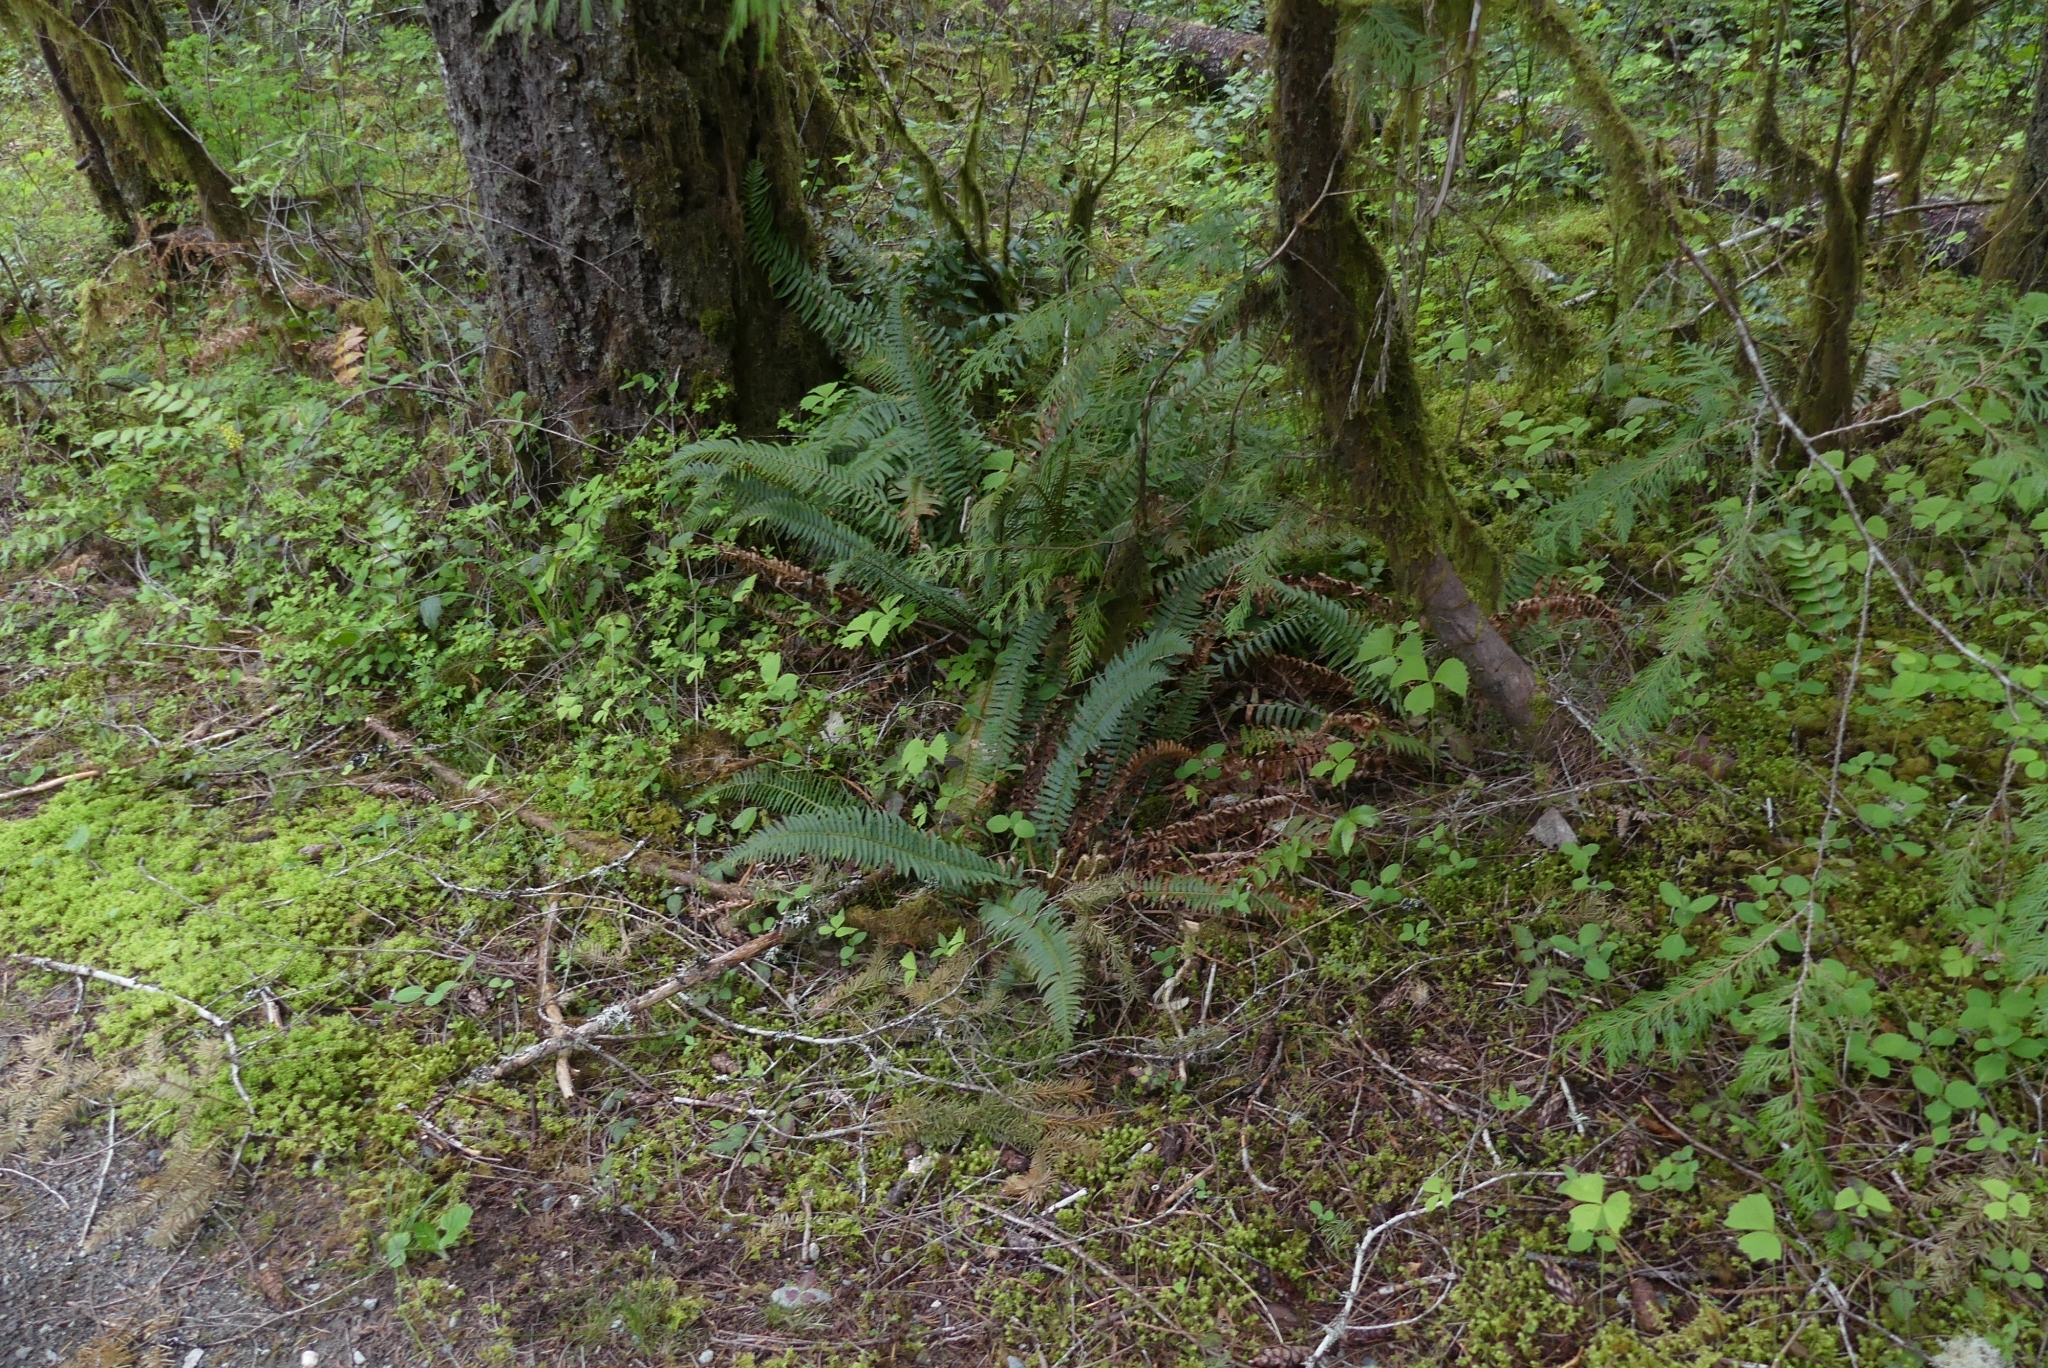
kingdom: Plantae
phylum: Tracheophyta
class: Polypodiopsida
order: Polypodiales
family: Dryopteridaceae
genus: Polystichum
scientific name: Polystichum munitum
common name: Western sword-fern
